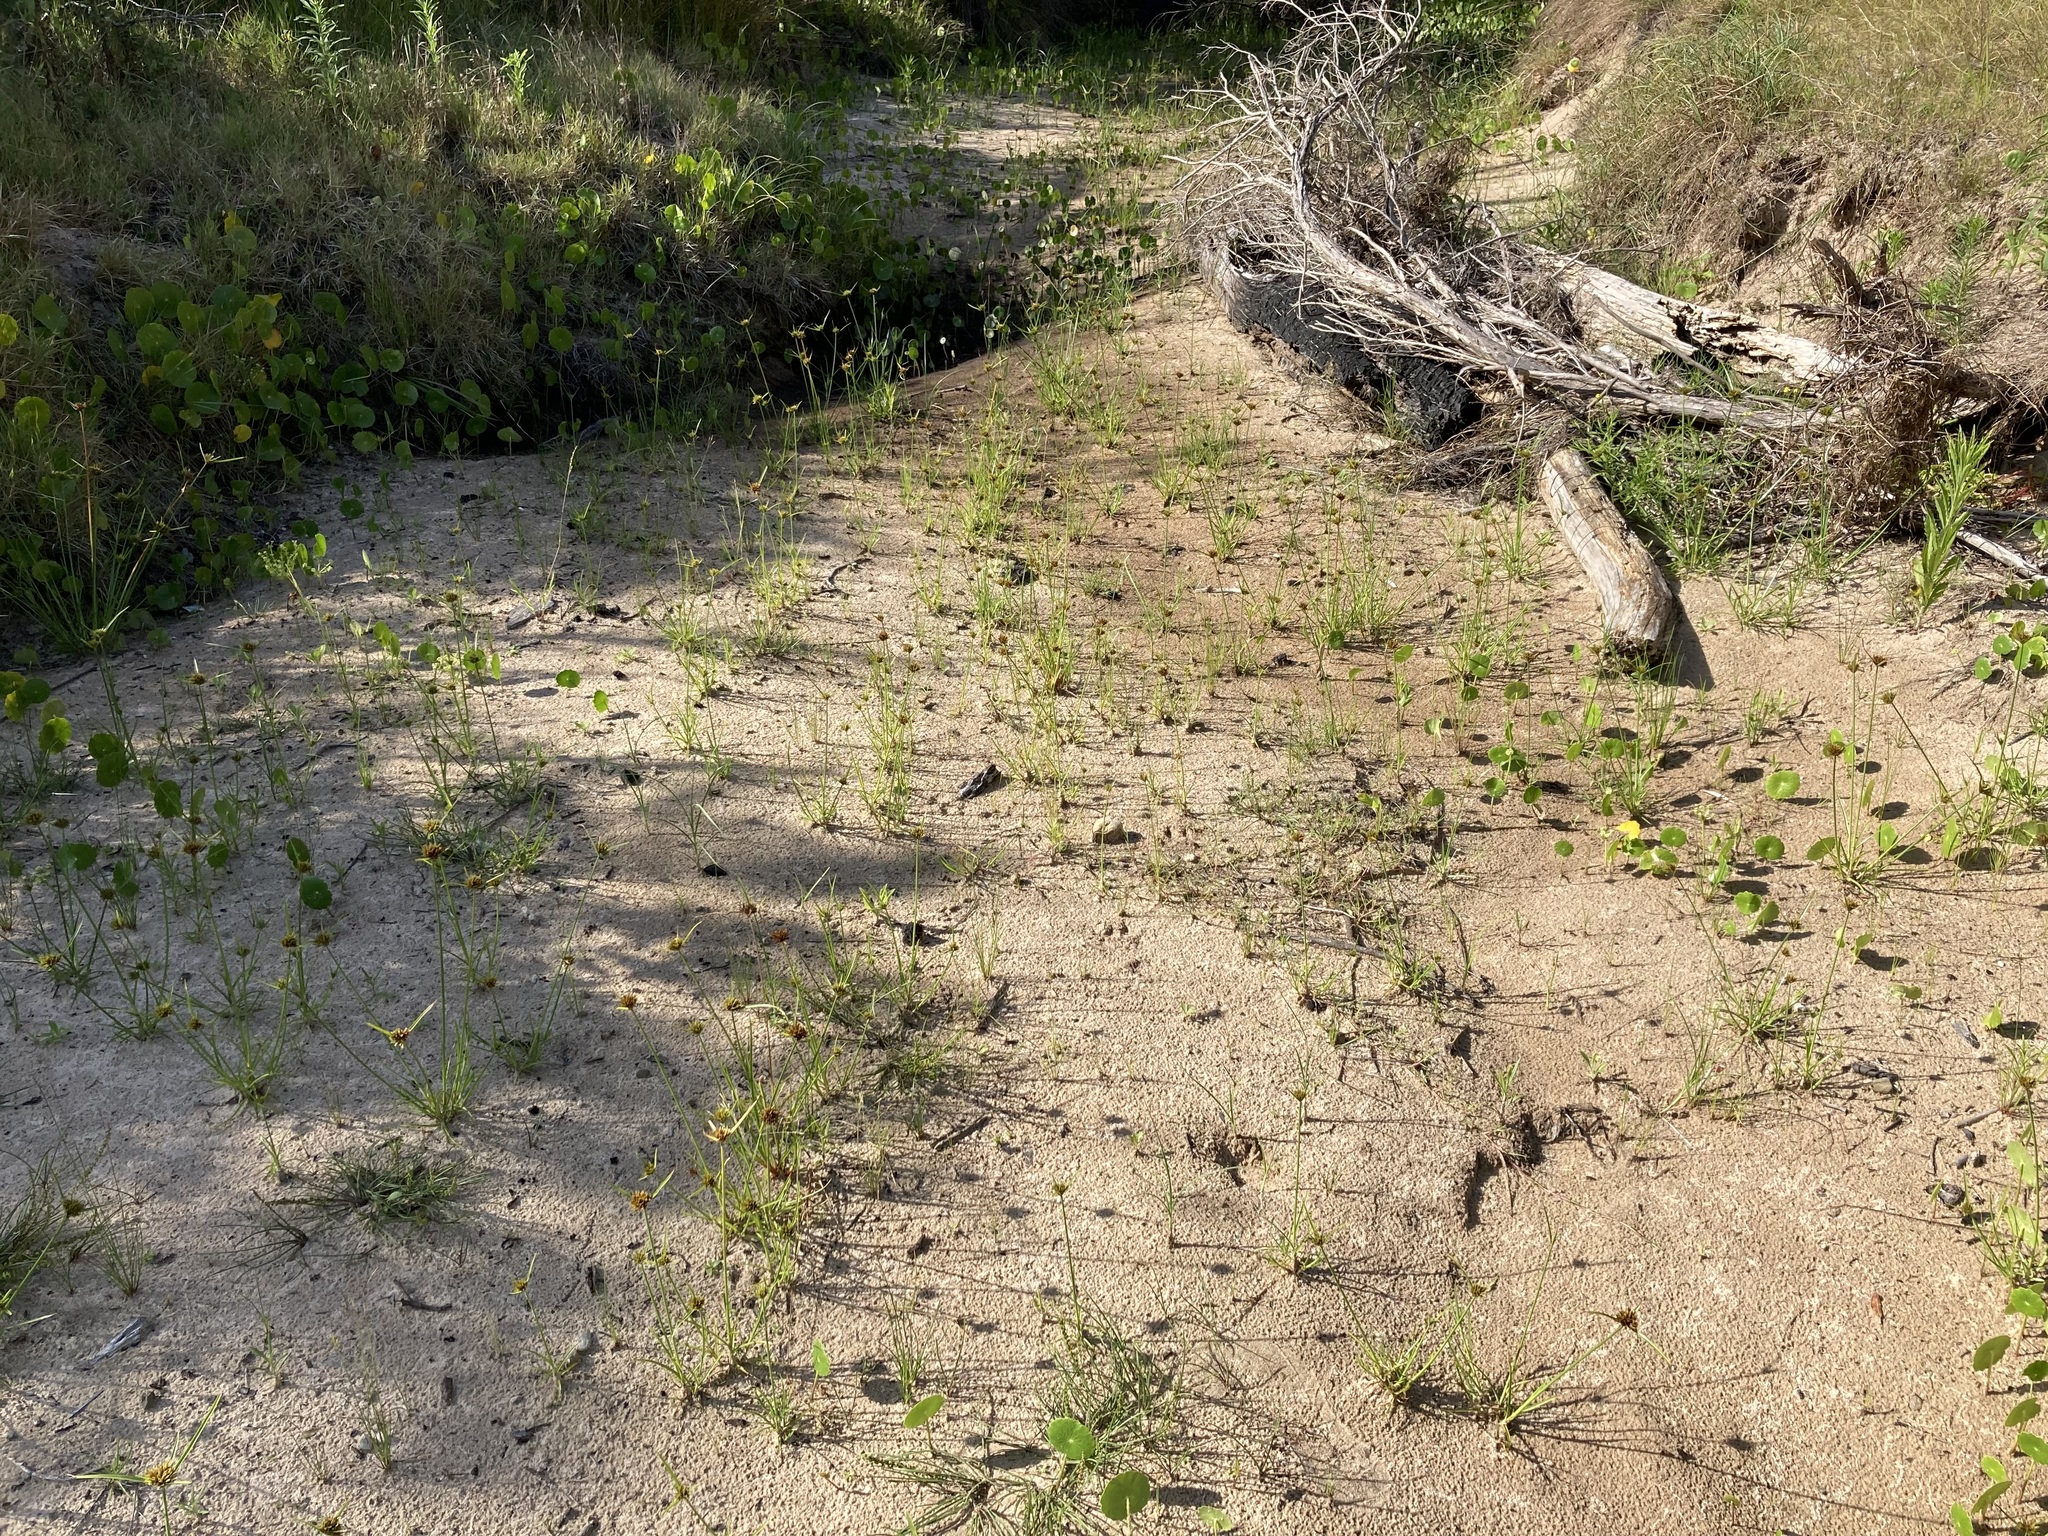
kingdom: Plantae
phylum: Tracheophyta
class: Liliopsida
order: Poales
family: Cyperaceae
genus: Cyperus
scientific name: Cyperus polystachyos
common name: Bunchy flat sedge
